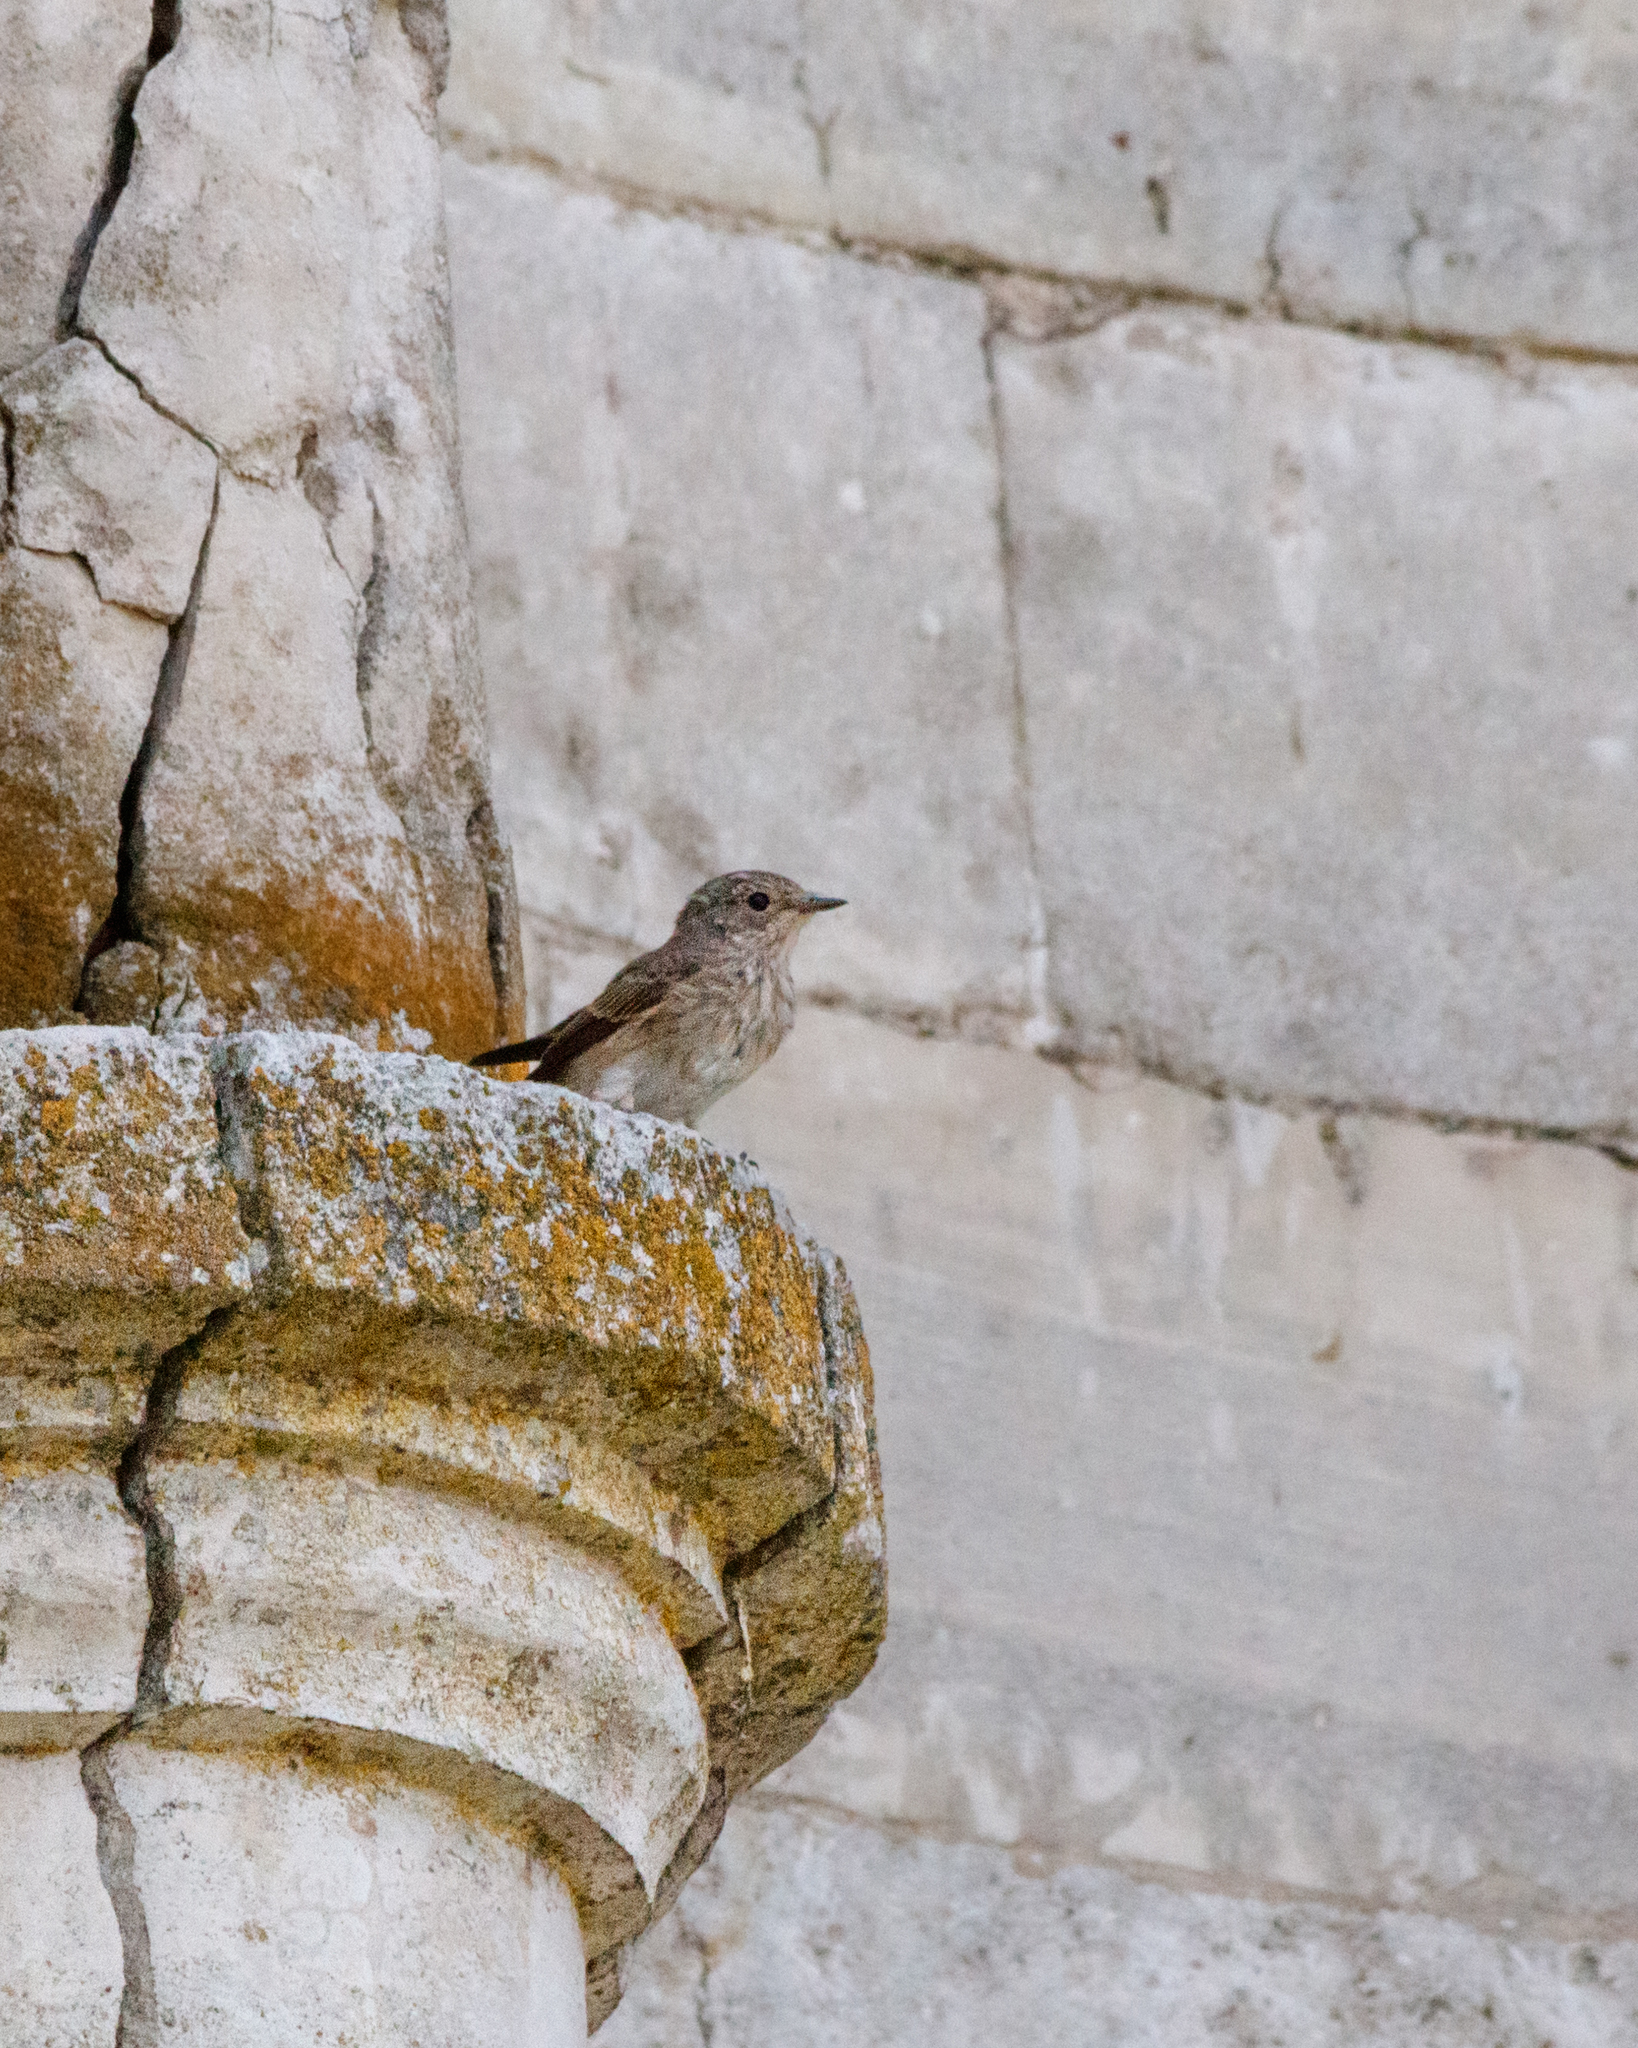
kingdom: Animalia
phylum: Chordata
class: Aves
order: Passeriformes
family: Muscicapidae
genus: Muscicapa
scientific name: Muscicapa striata
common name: Spotted flycatcher
